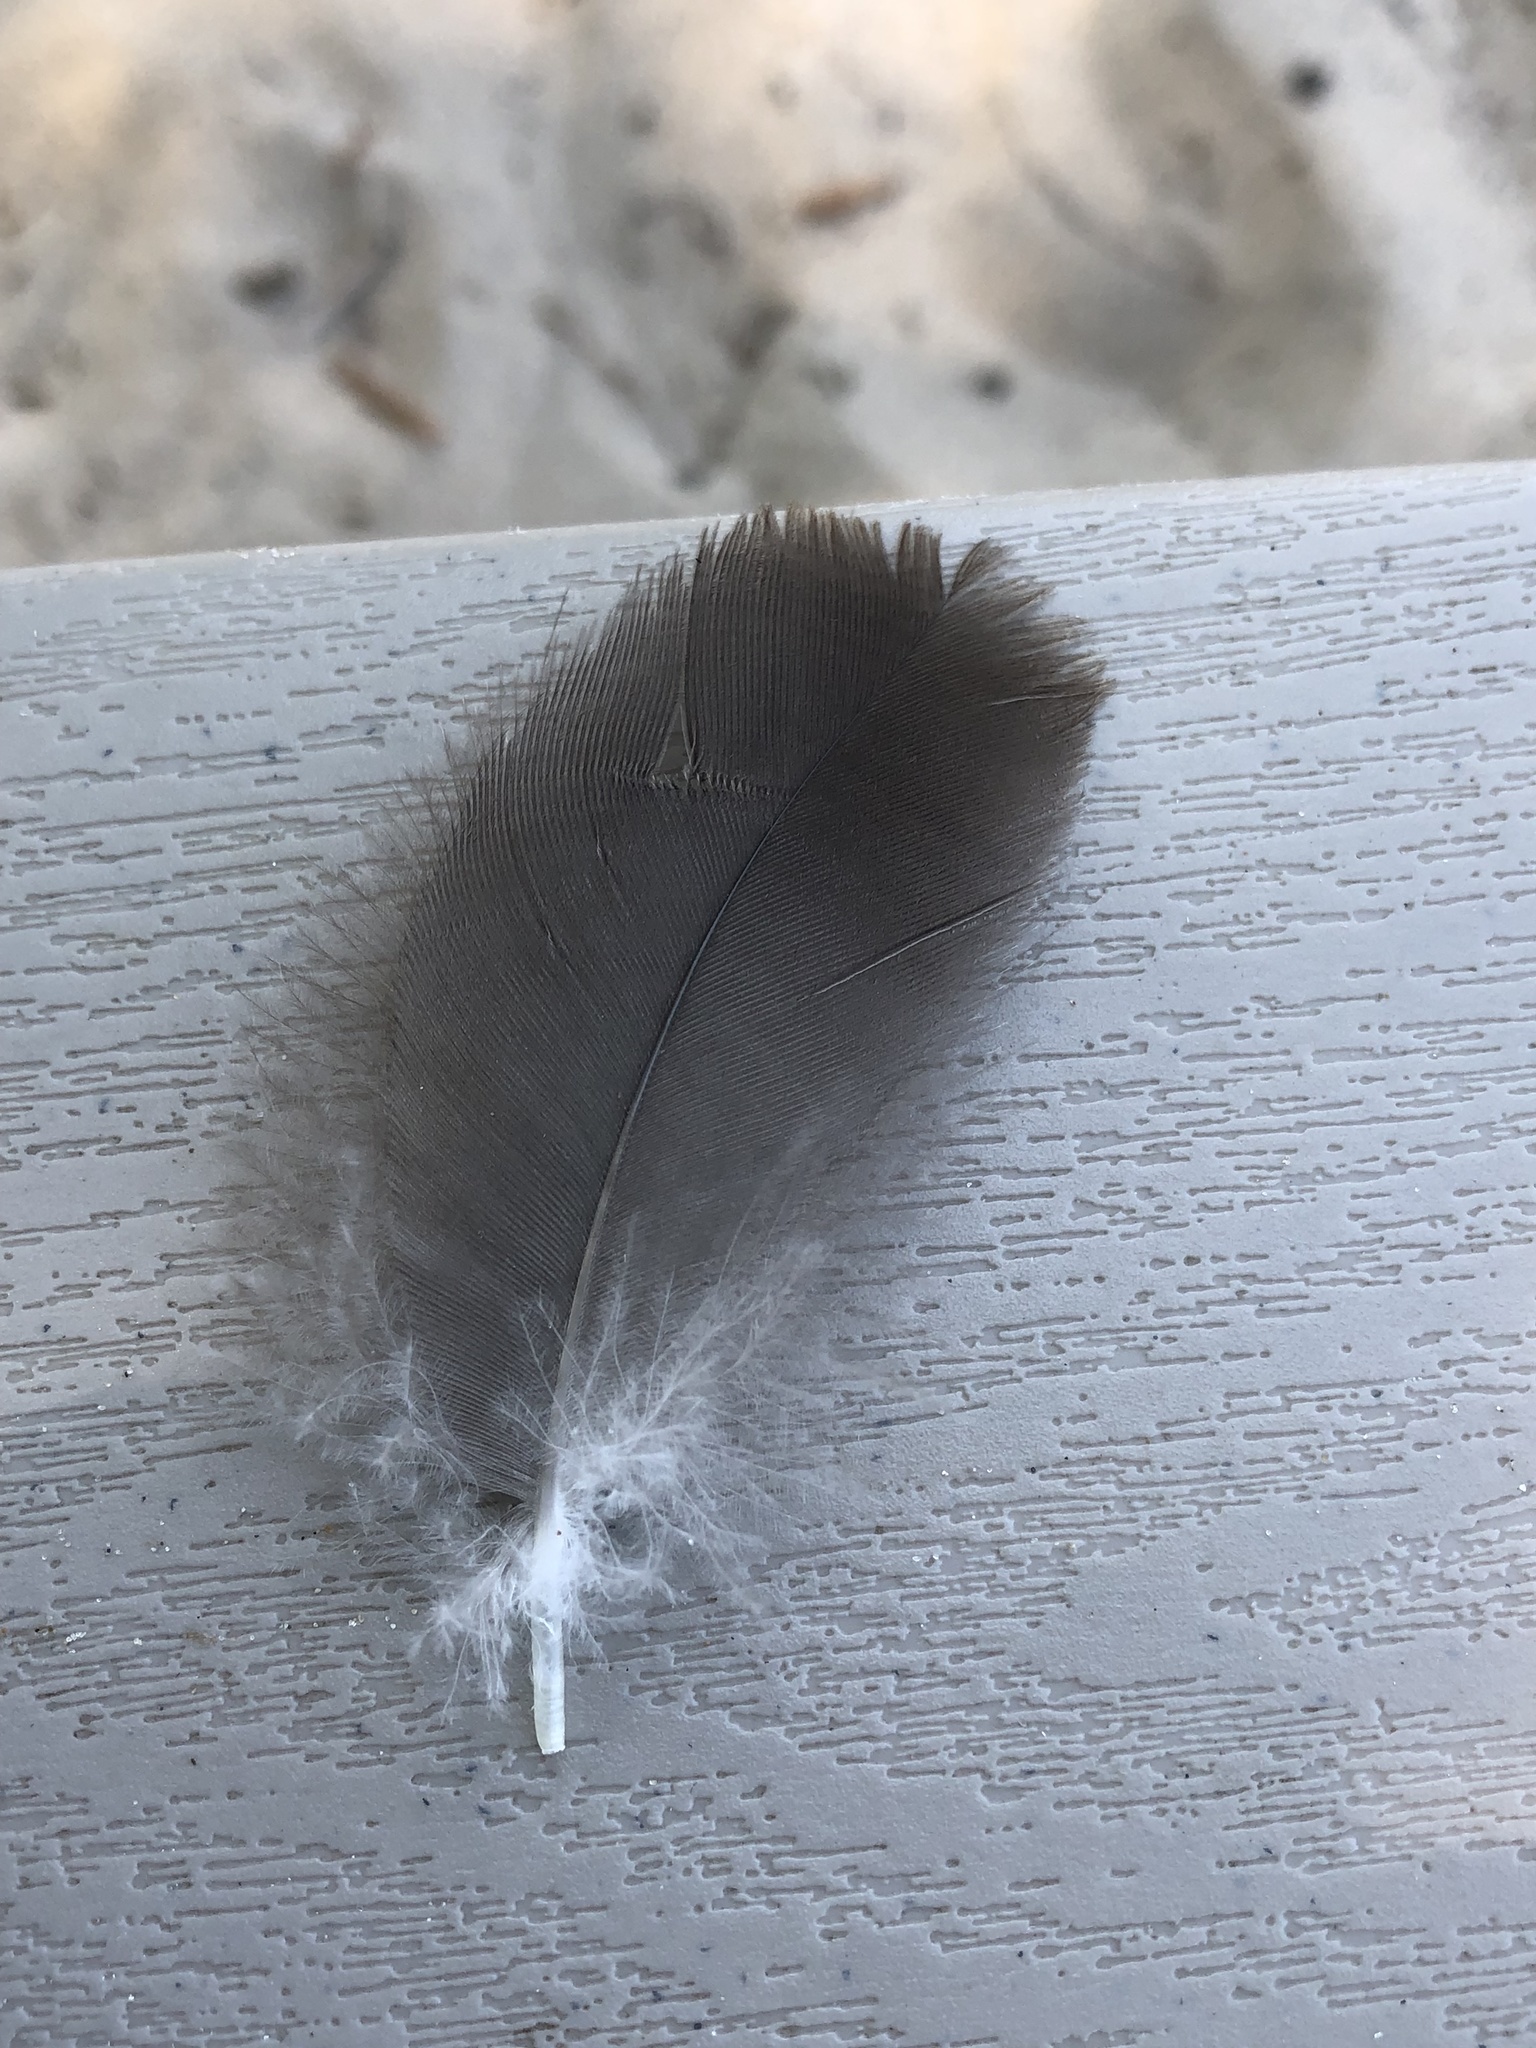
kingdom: Animalia
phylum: Chordata
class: Aves
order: Anseriformes
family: Anatidae
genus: Branta
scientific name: Branta canadensis
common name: Canada goose
